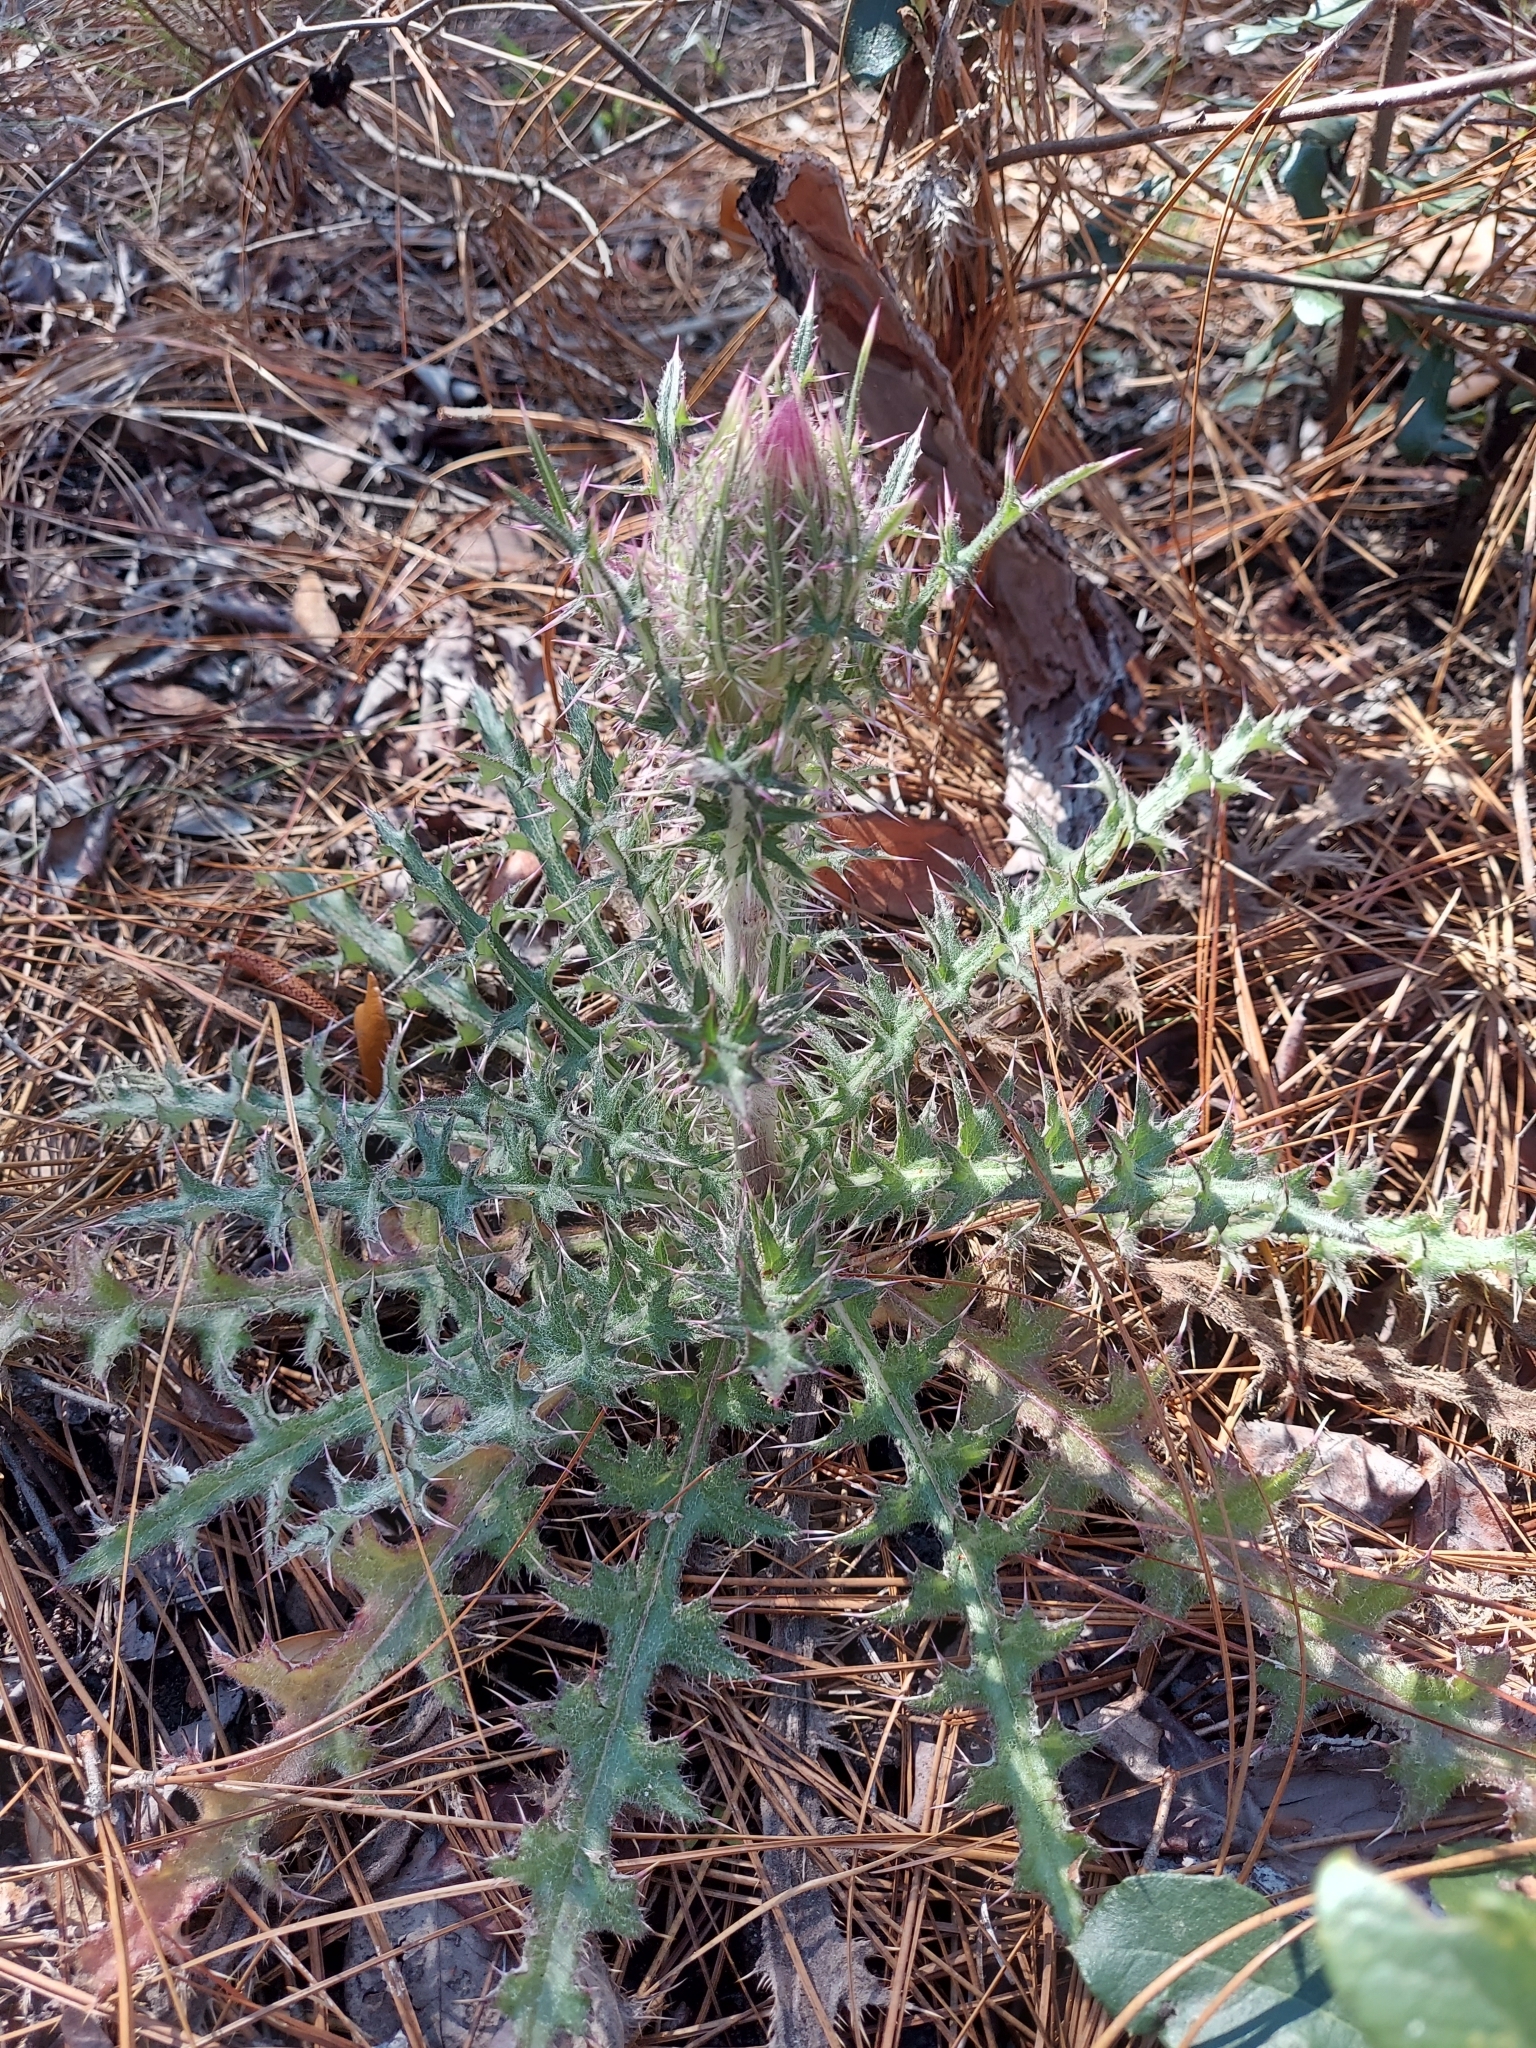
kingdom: Plantae
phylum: Tracheophyta
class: Magnoliopsida
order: Asterales
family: Asteraceae
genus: Cirsium
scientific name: Cirsium horridulum
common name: Bristly thistle
